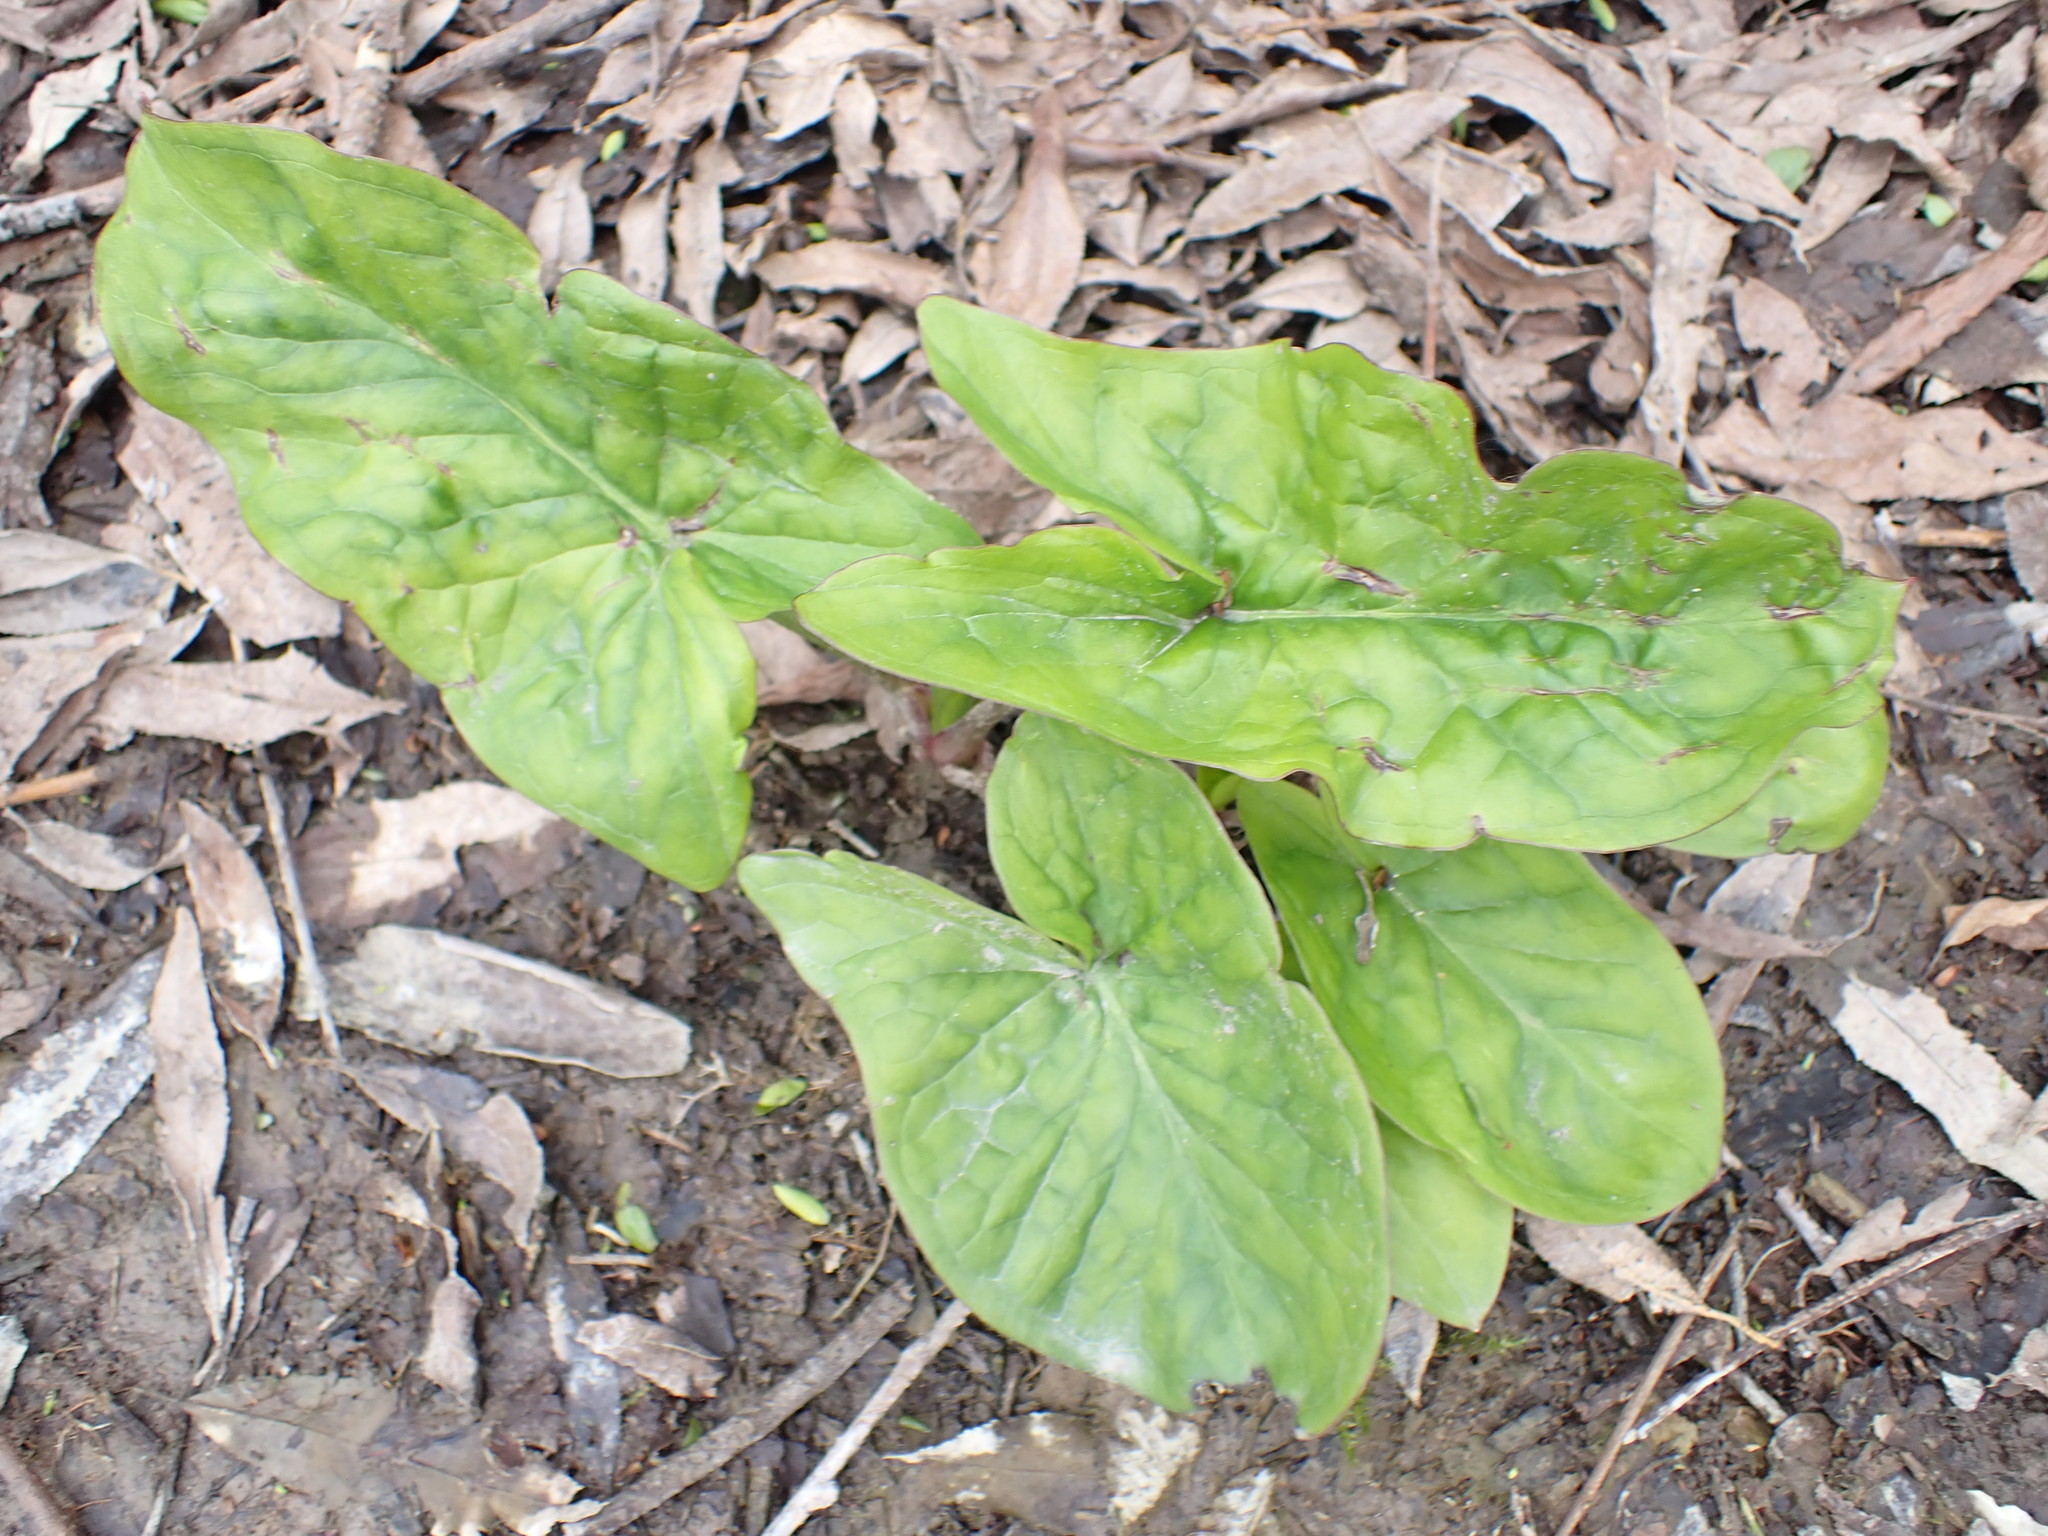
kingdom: Plantae
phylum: Tracheophyta
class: Liliopsida
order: Alismatales
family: Araceae
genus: Arum
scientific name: Arum maculatum
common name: Lords-and-ladies
